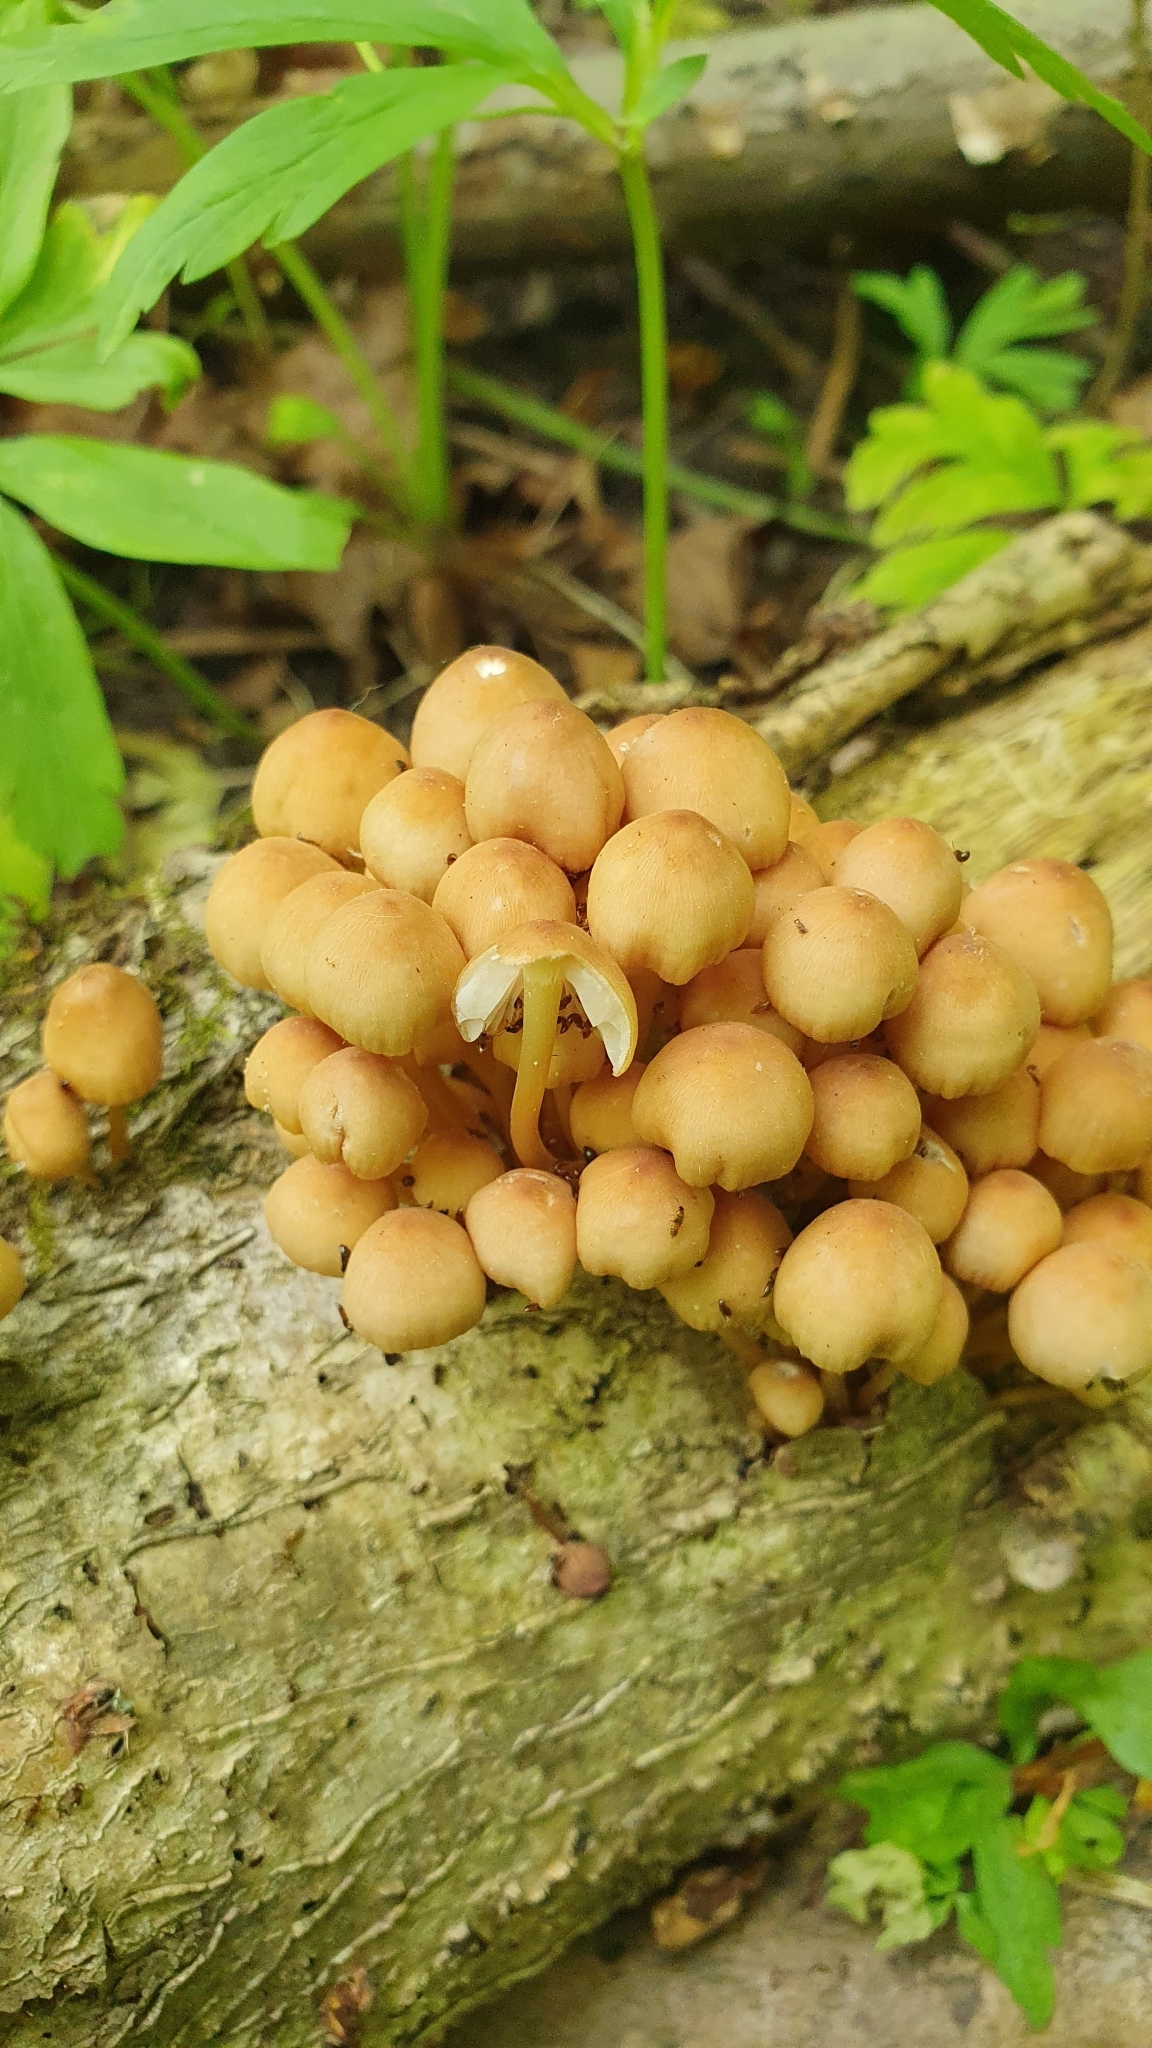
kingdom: Fungi
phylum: Basidiomycota
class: Agaricomycetes
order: Agaricales
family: Psathyrellaceae
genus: Coprinellus
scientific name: Coprinellus micaceus
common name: Glistening ink-cap
